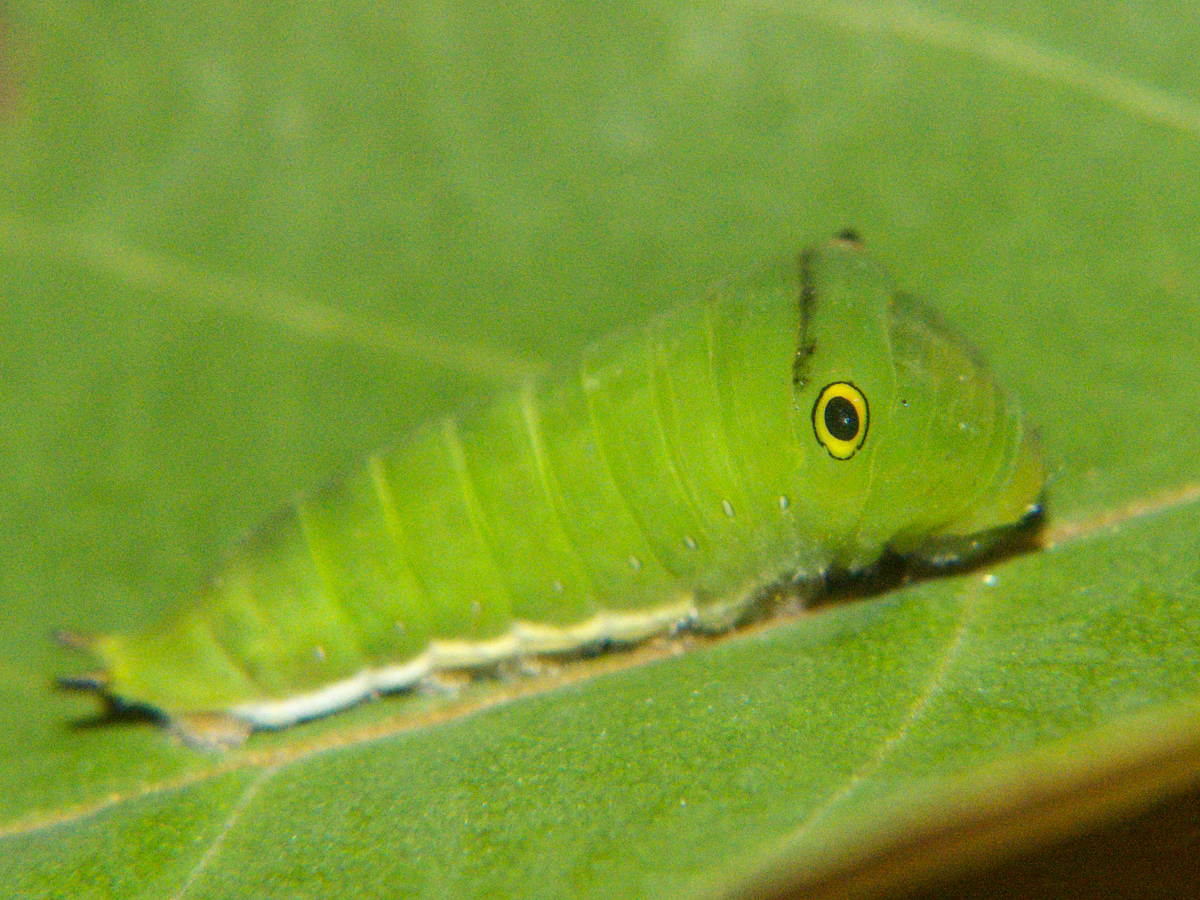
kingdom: Animalia
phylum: Arthropoda
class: Insecta
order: Lepidoptera
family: Papilionidae
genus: Graphium
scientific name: Graphium doson
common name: Common jay
